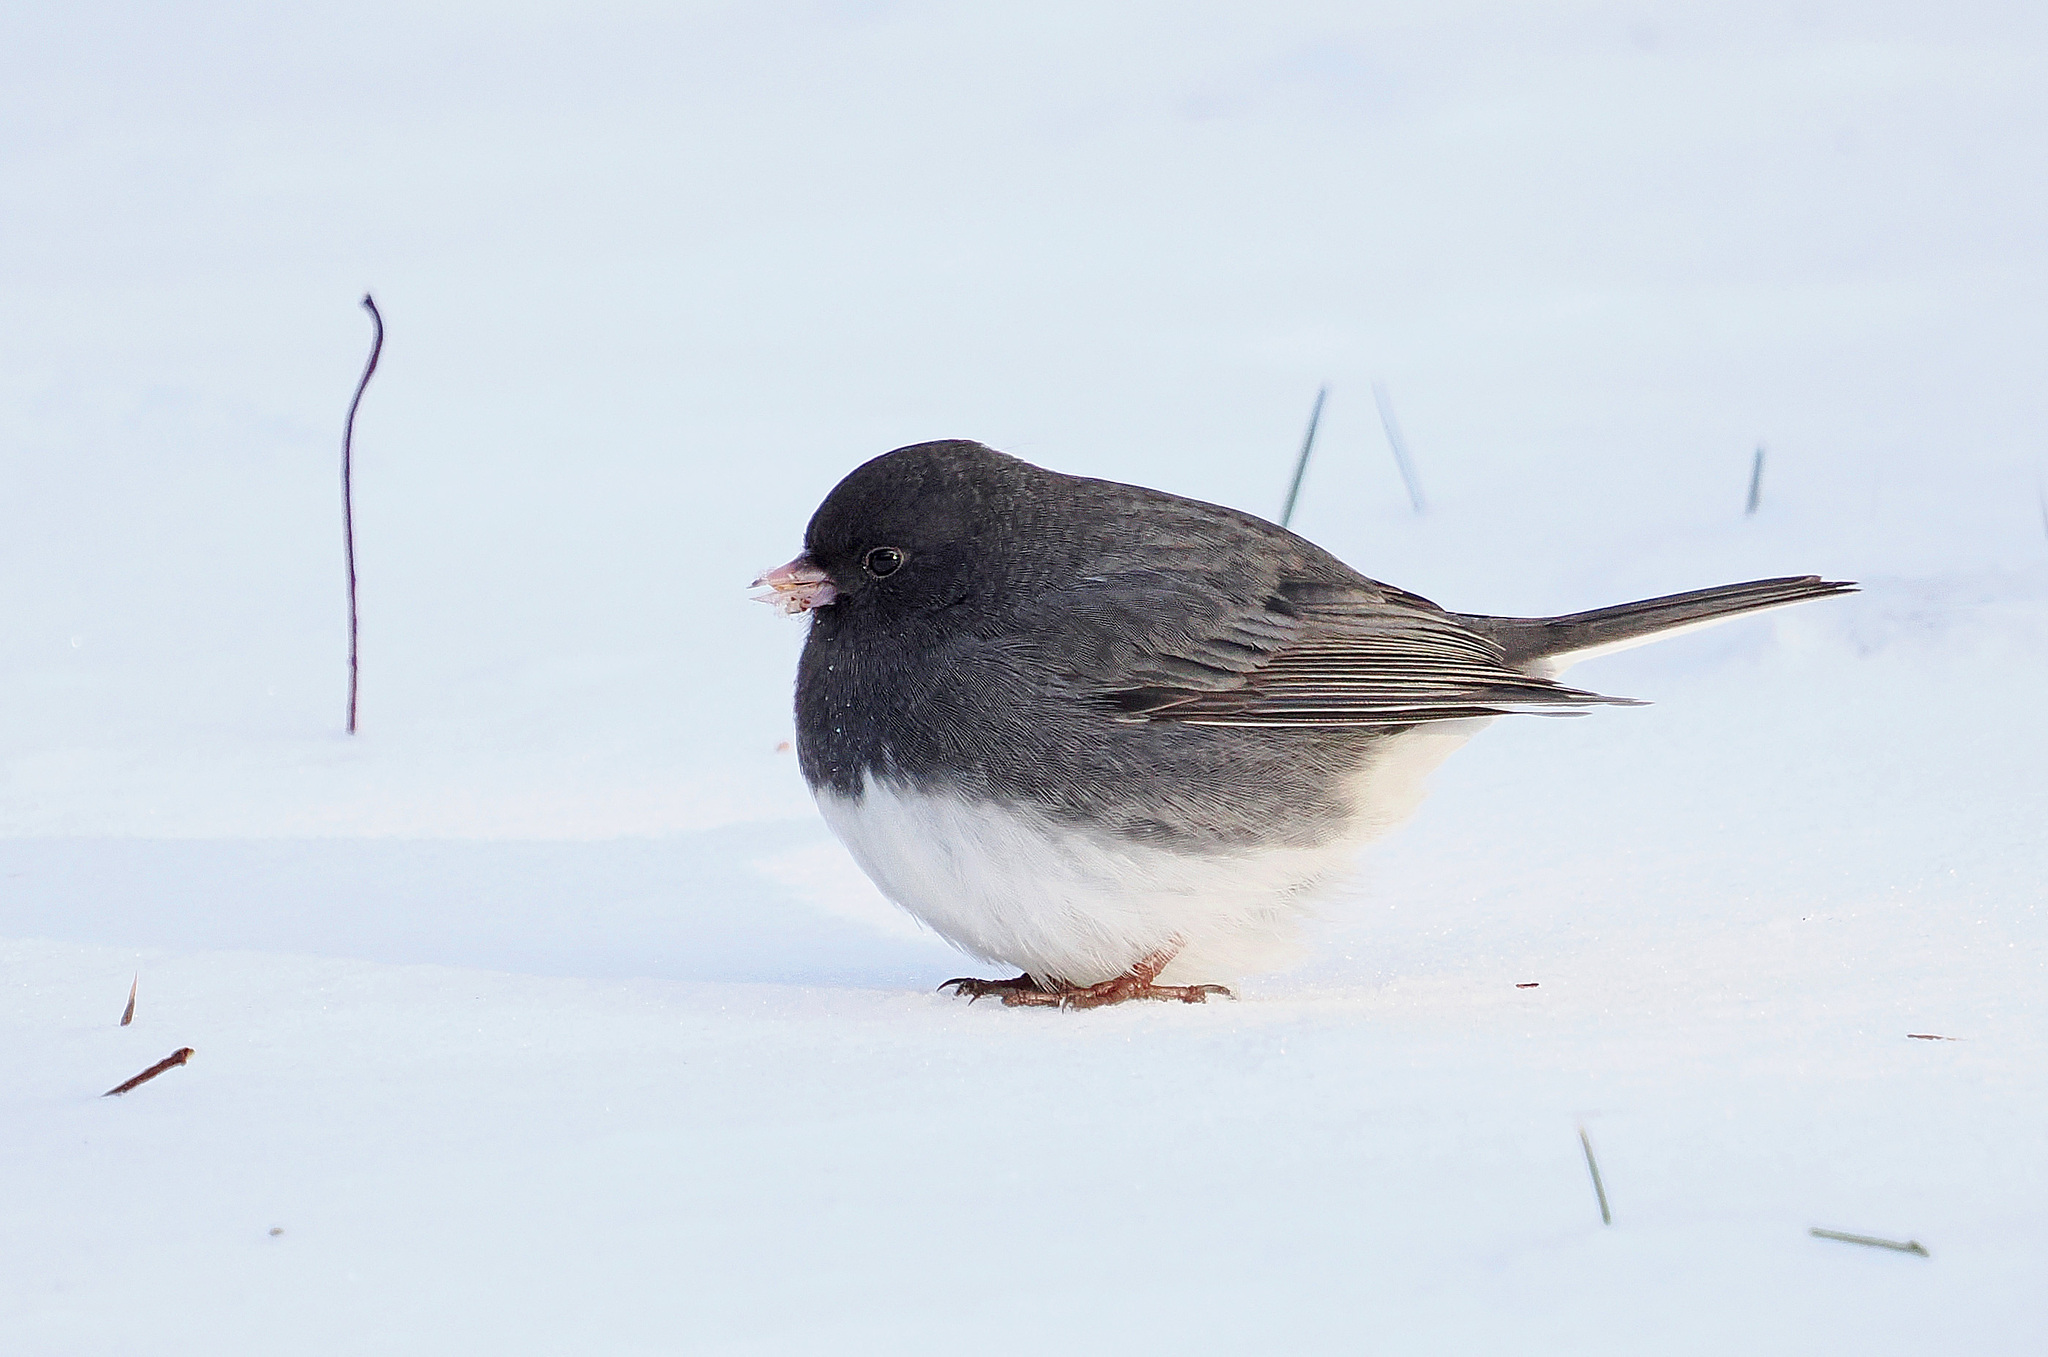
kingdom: Animalia
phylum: Chordata
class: Aves
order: Passeriformes
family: Passerellidae
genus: Junco
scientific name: Junco hyemalis
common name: Dark-eyed junco
